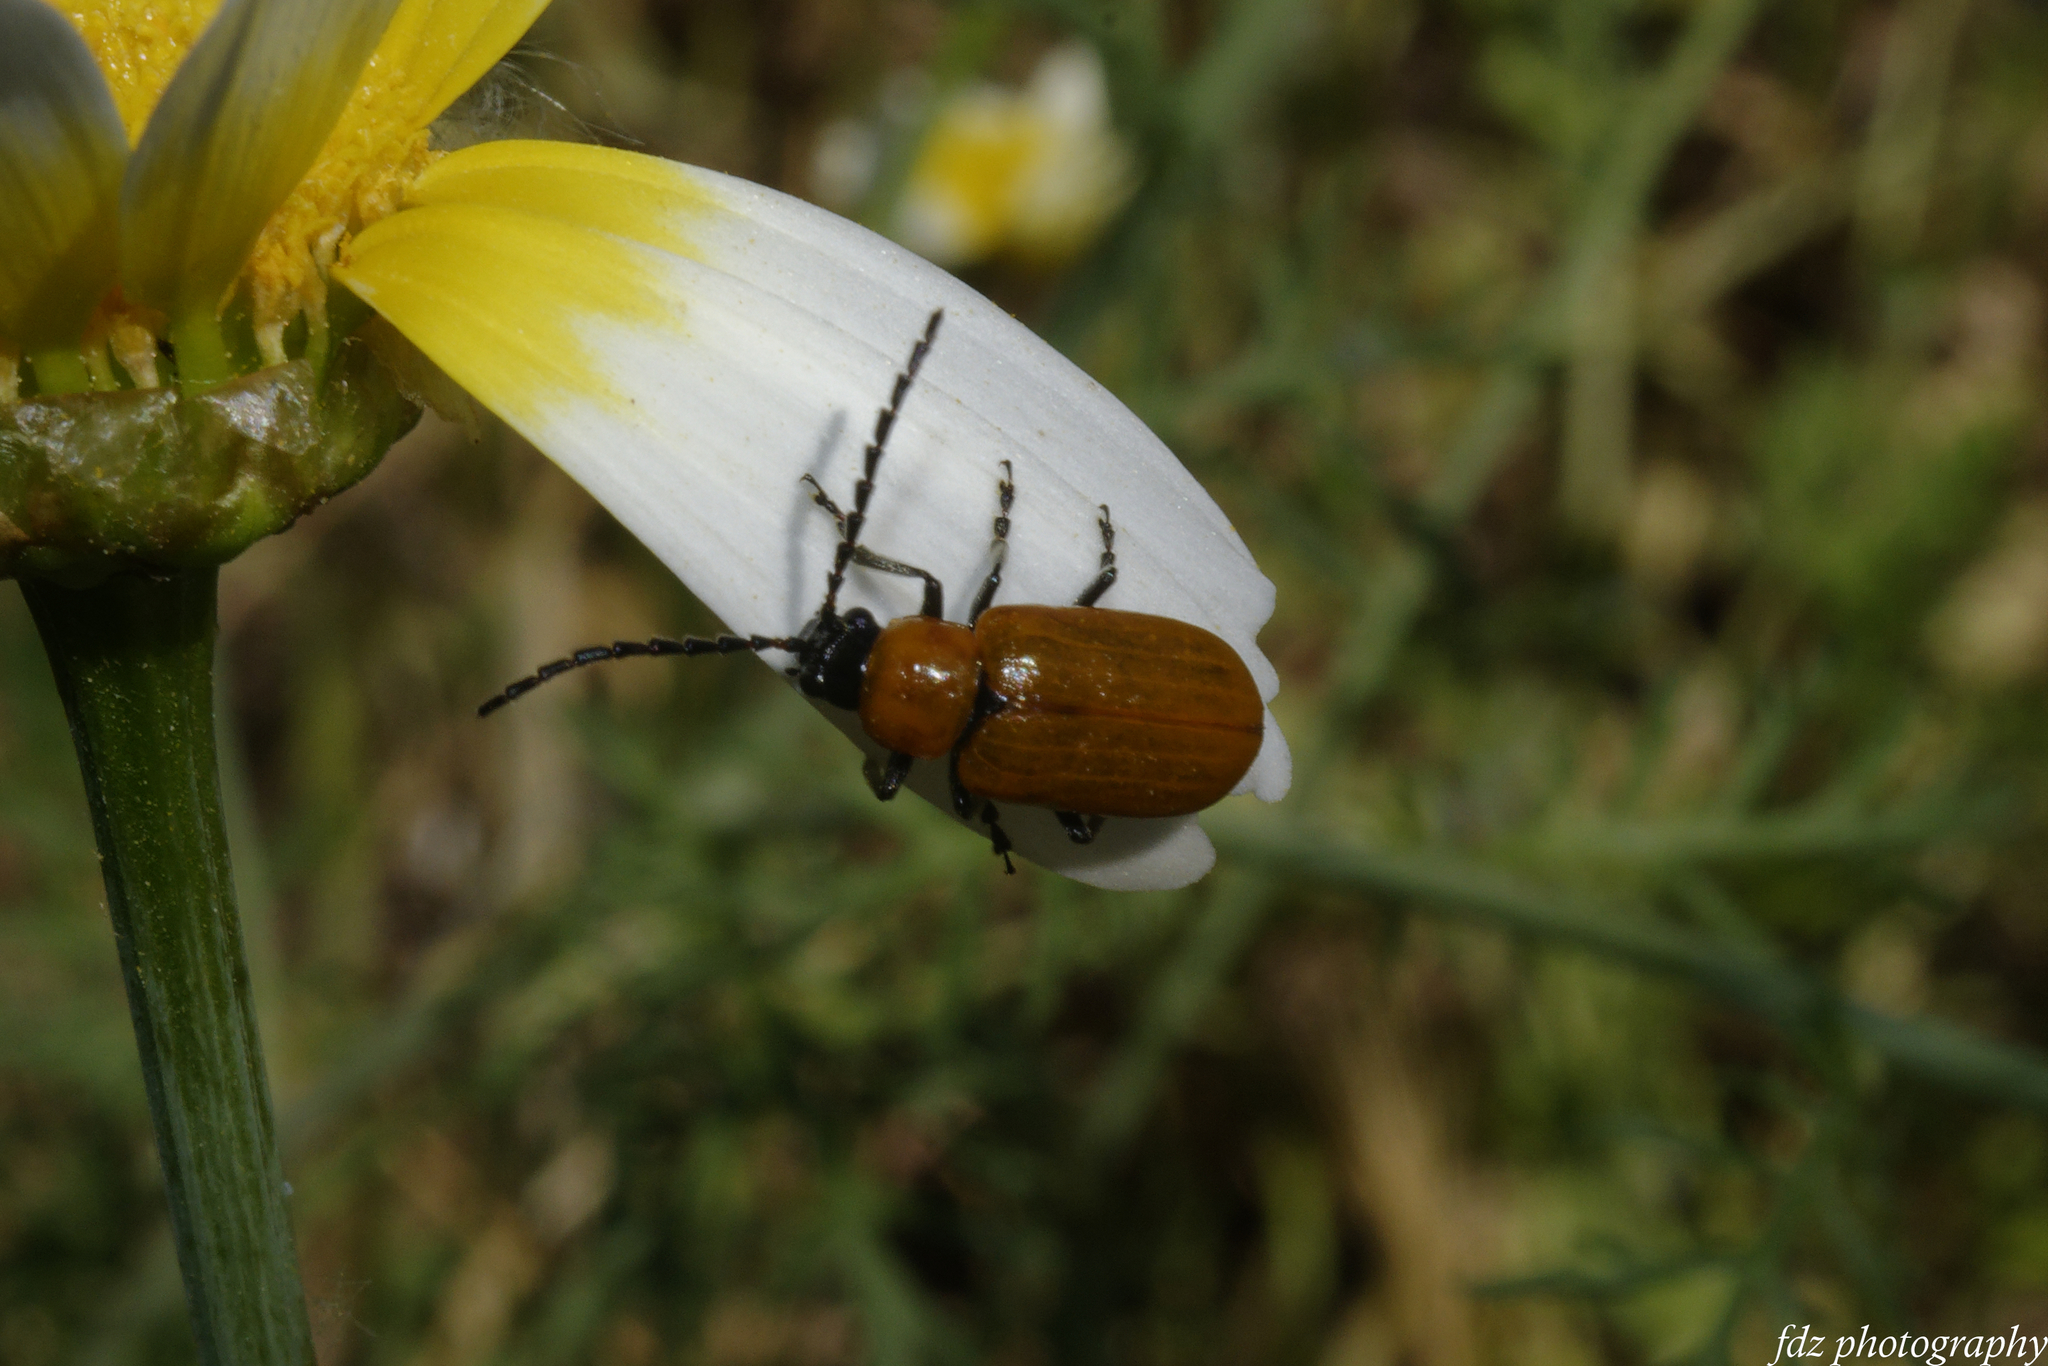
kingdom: Animalia
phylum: Arthropoda
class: Insecta
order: Coleoptera
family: Chrysomelidae
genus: Exosoma
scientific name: Exosoma lusitanicum
